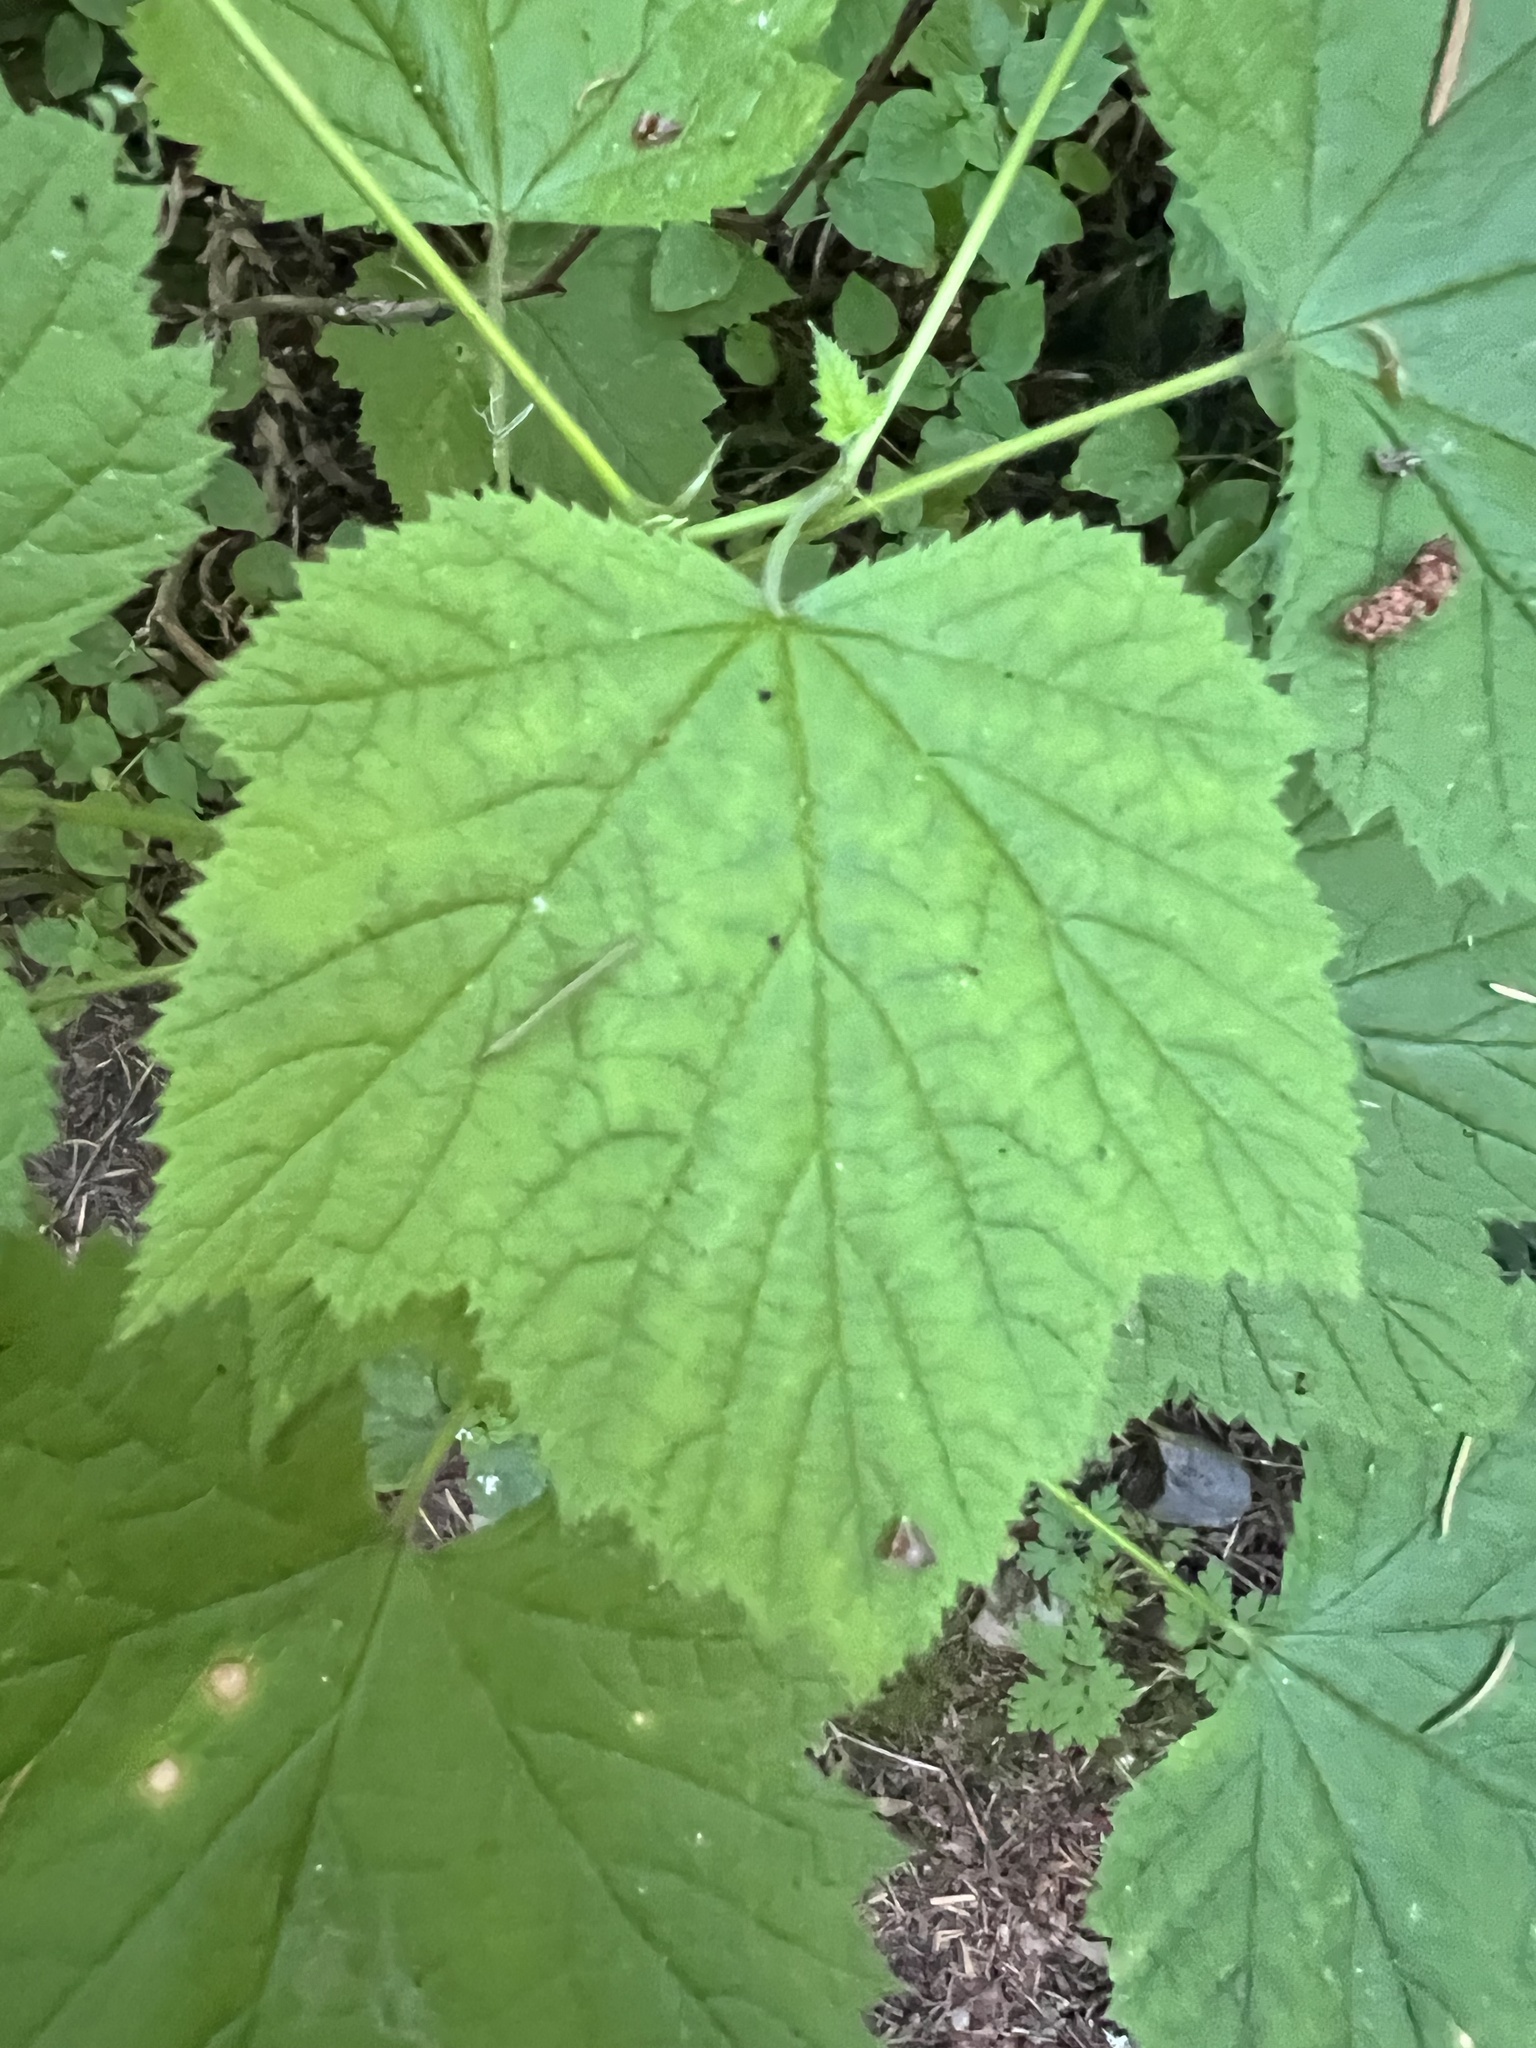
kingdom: Plantae
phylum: Tracheophyta
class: Magnoliopsida
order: Rosales
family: Rosaceae
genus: Rubus
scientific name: Rubus parviflorus
